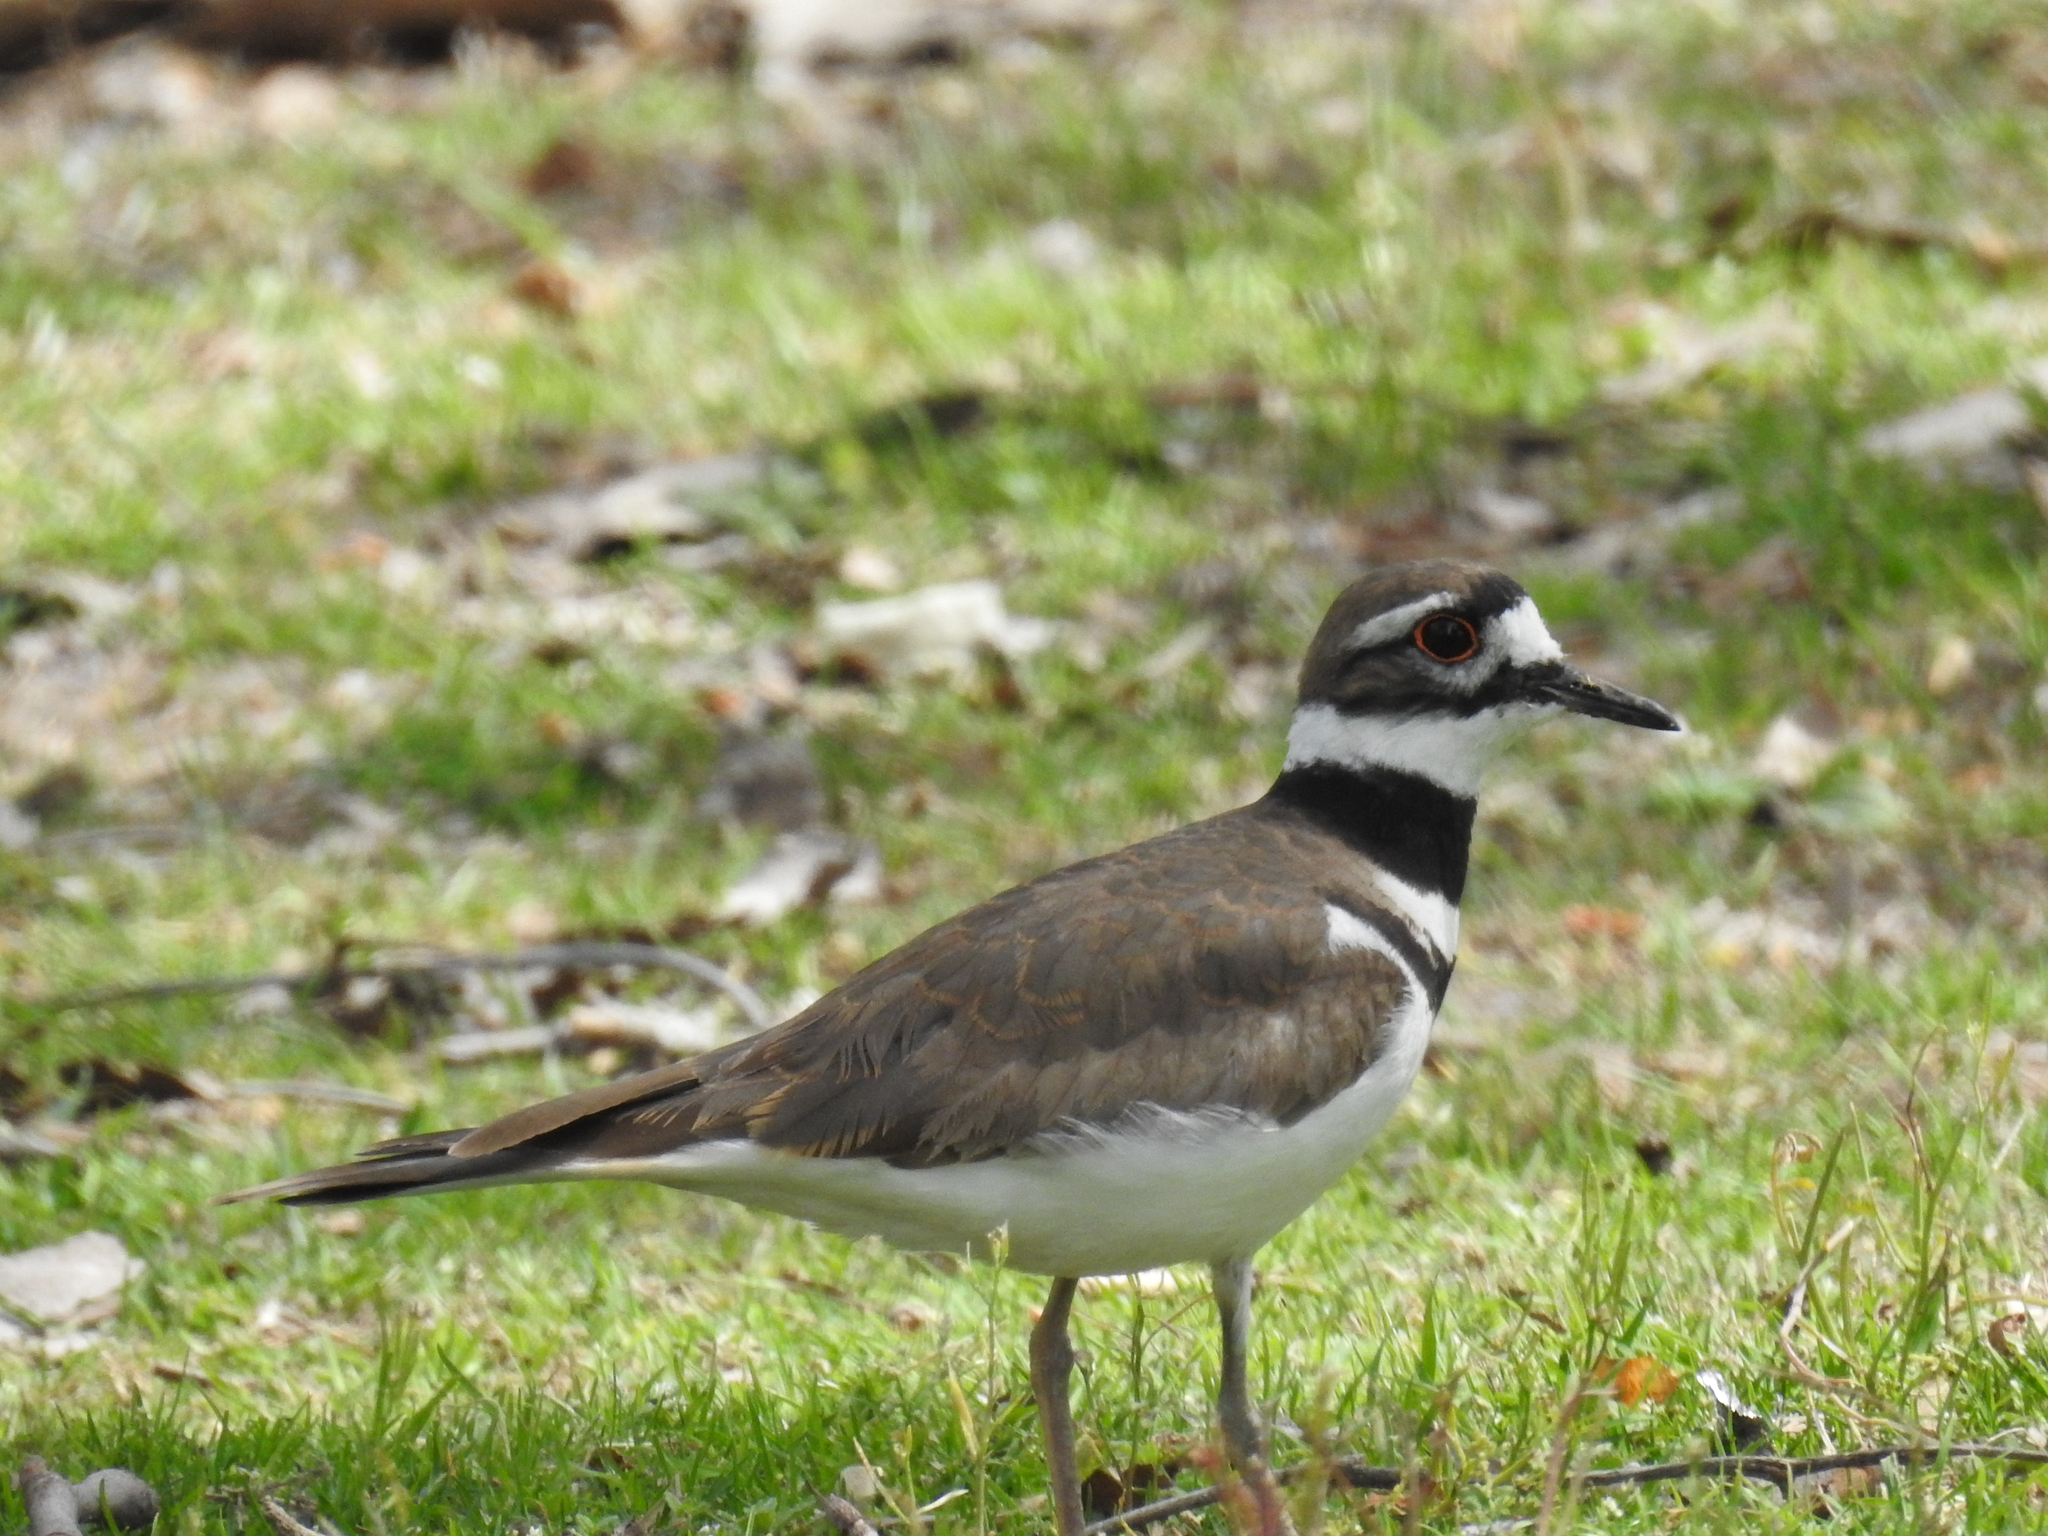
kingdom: Animalia
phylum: Chordata
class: Aves
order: Charadriiformes
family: Charadriidae
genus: Charadrius
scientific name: Charadrius vociferus
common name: Killdeer
